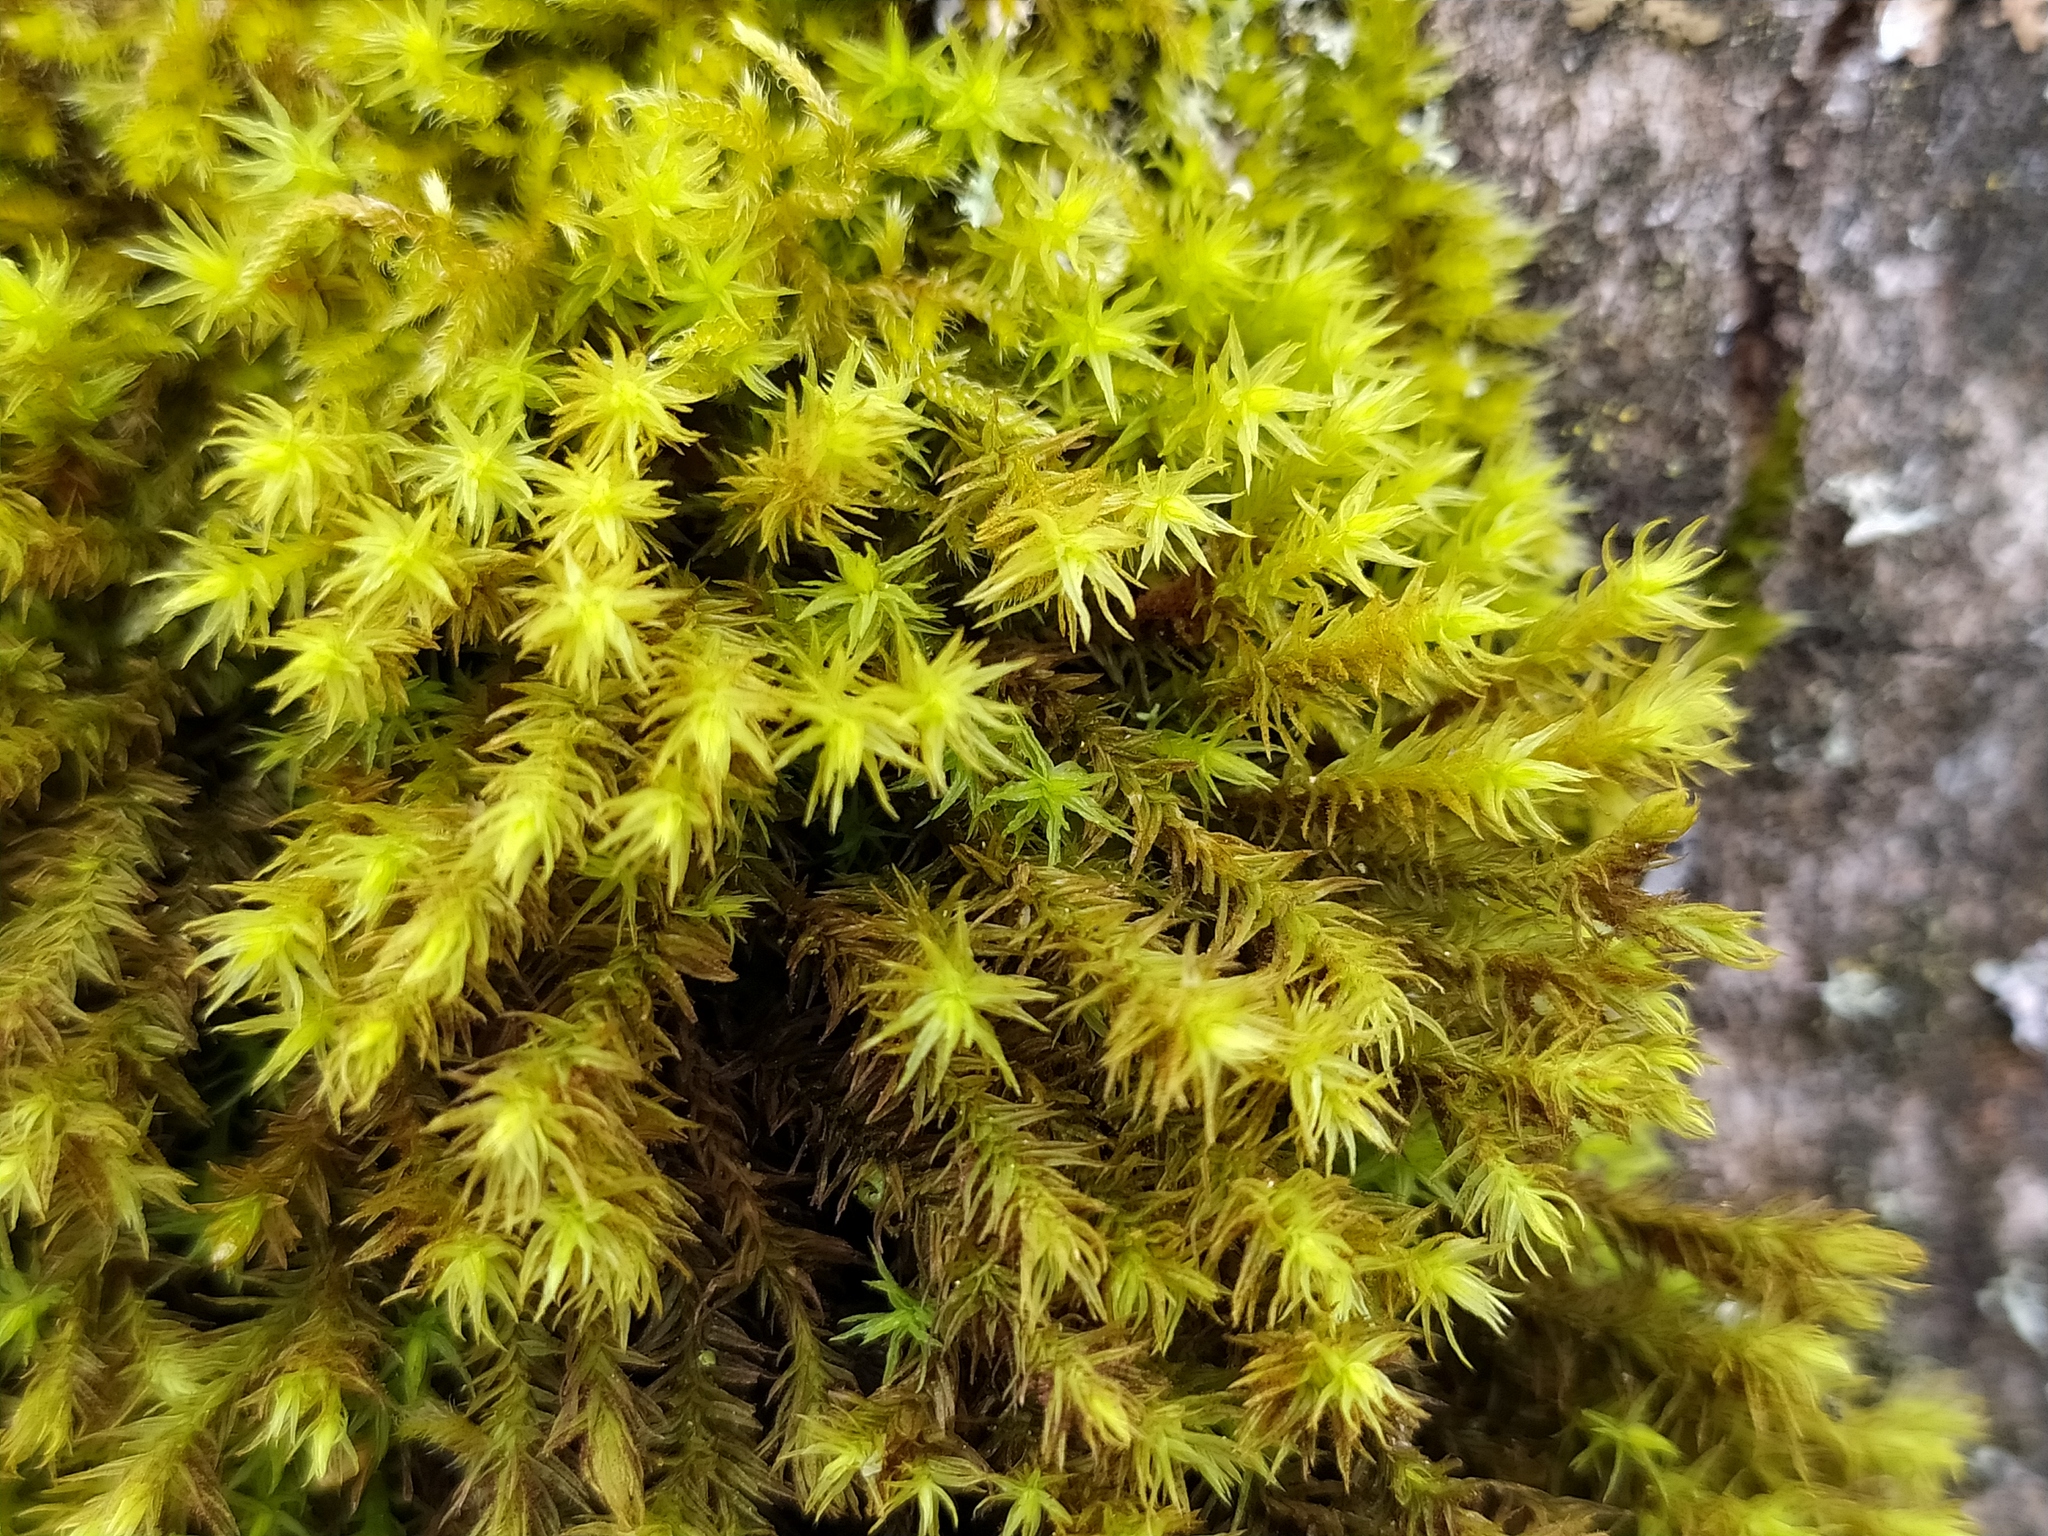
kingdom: Plantae
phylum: Bryophyta
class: Bryopsida
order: Orthotrichales
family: Orthotrichaceae
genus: Pulvigera
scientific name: Pulvigera lyellii
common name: Lyell's bristle-moss
